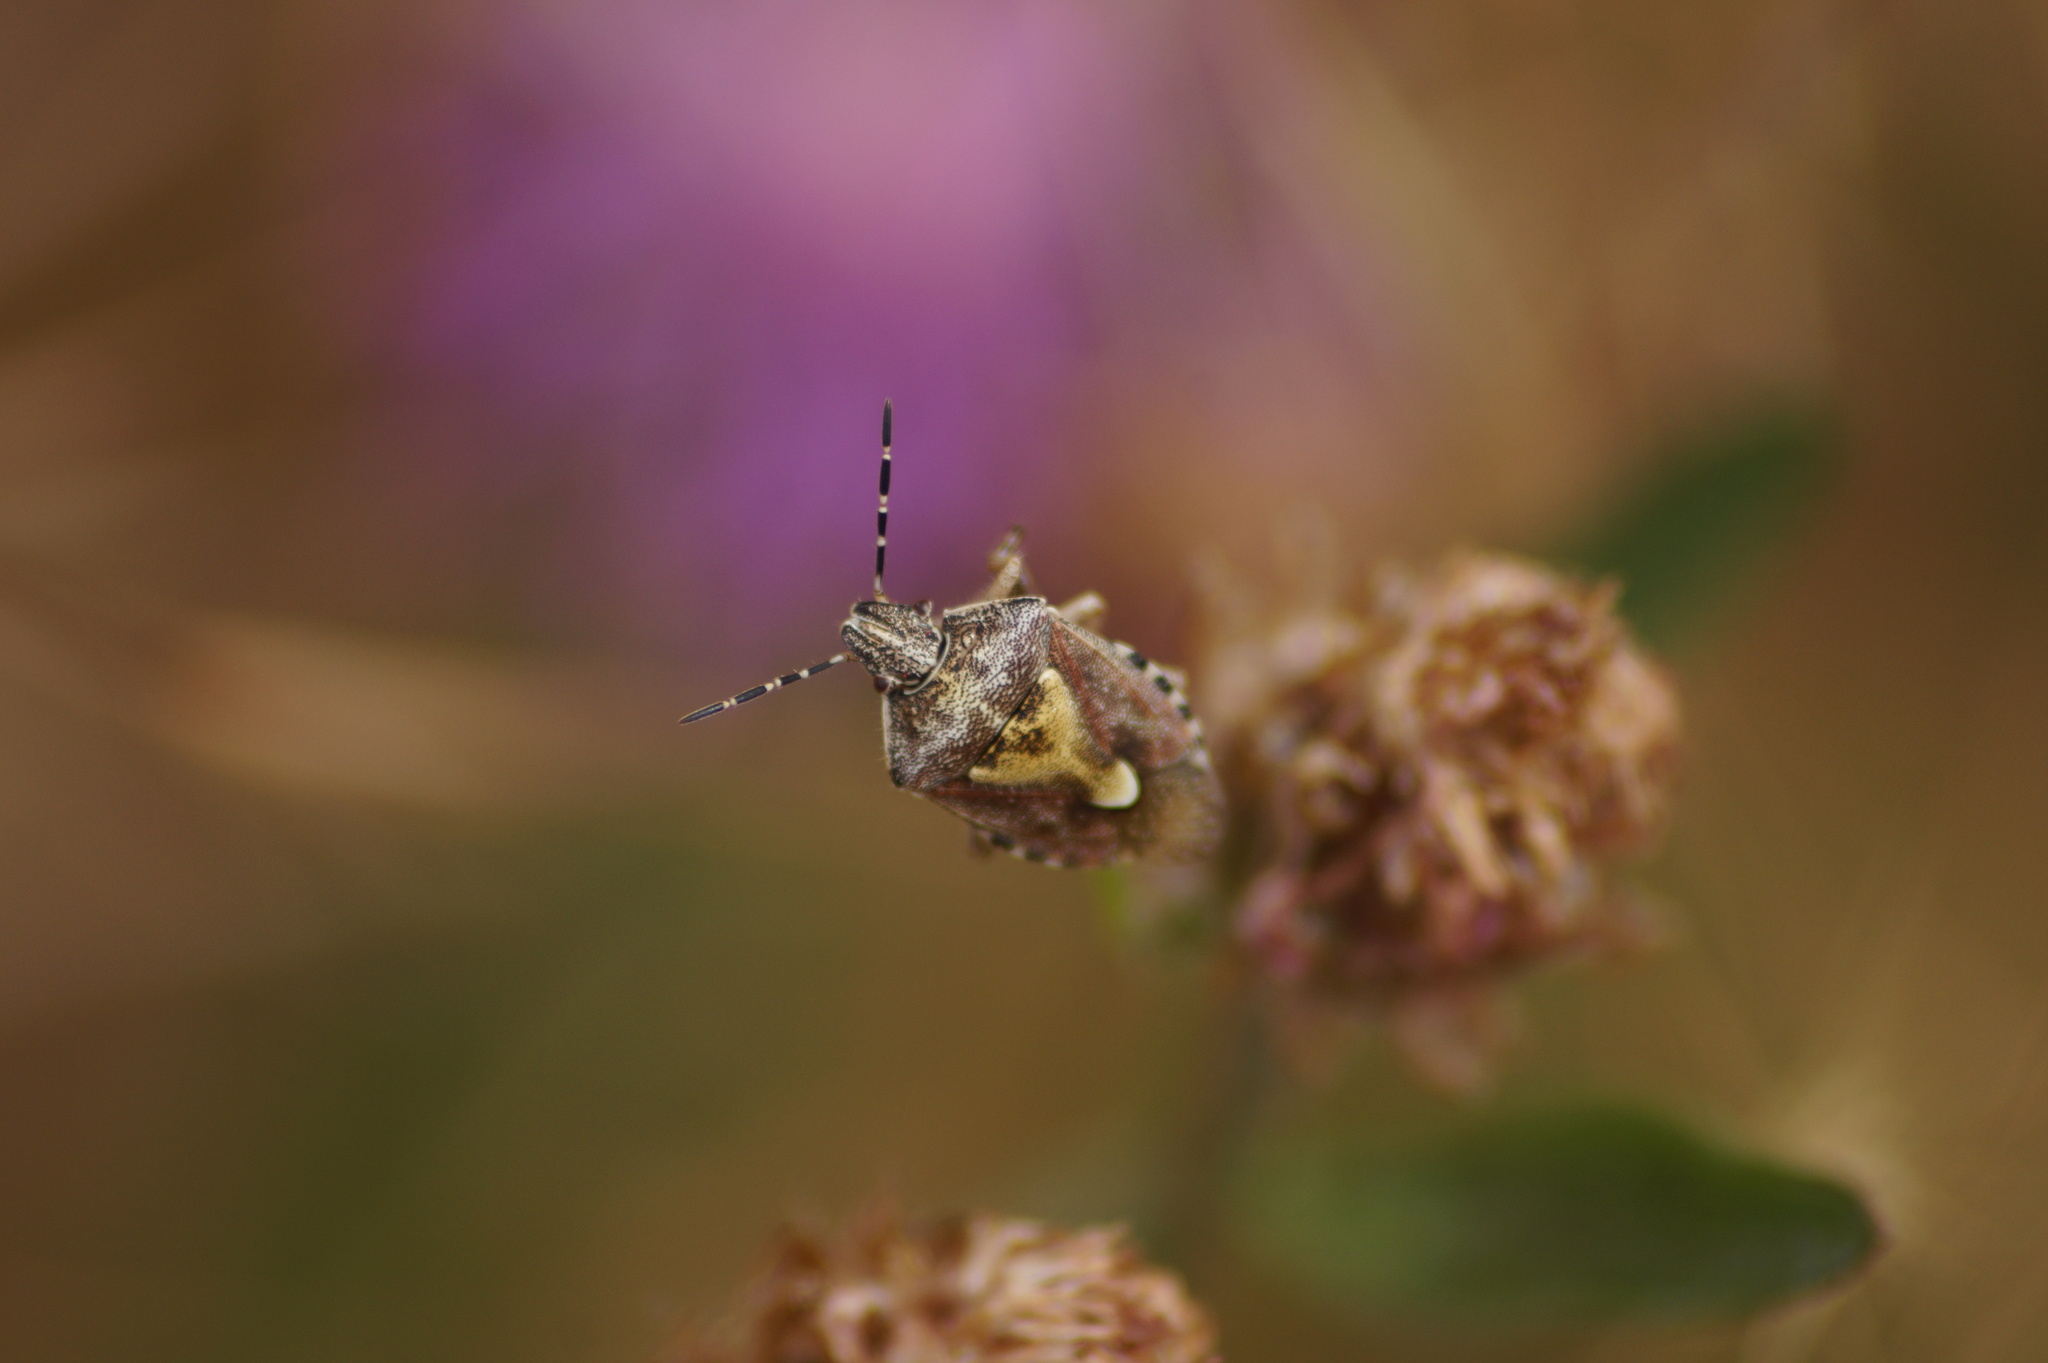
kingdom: Animalia
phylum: Arthropoda
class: Insecta
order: Hemiptera
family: Pentatomidae
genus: Dolycoris
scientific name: Dolycoris baccarum
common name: Sloe bug
